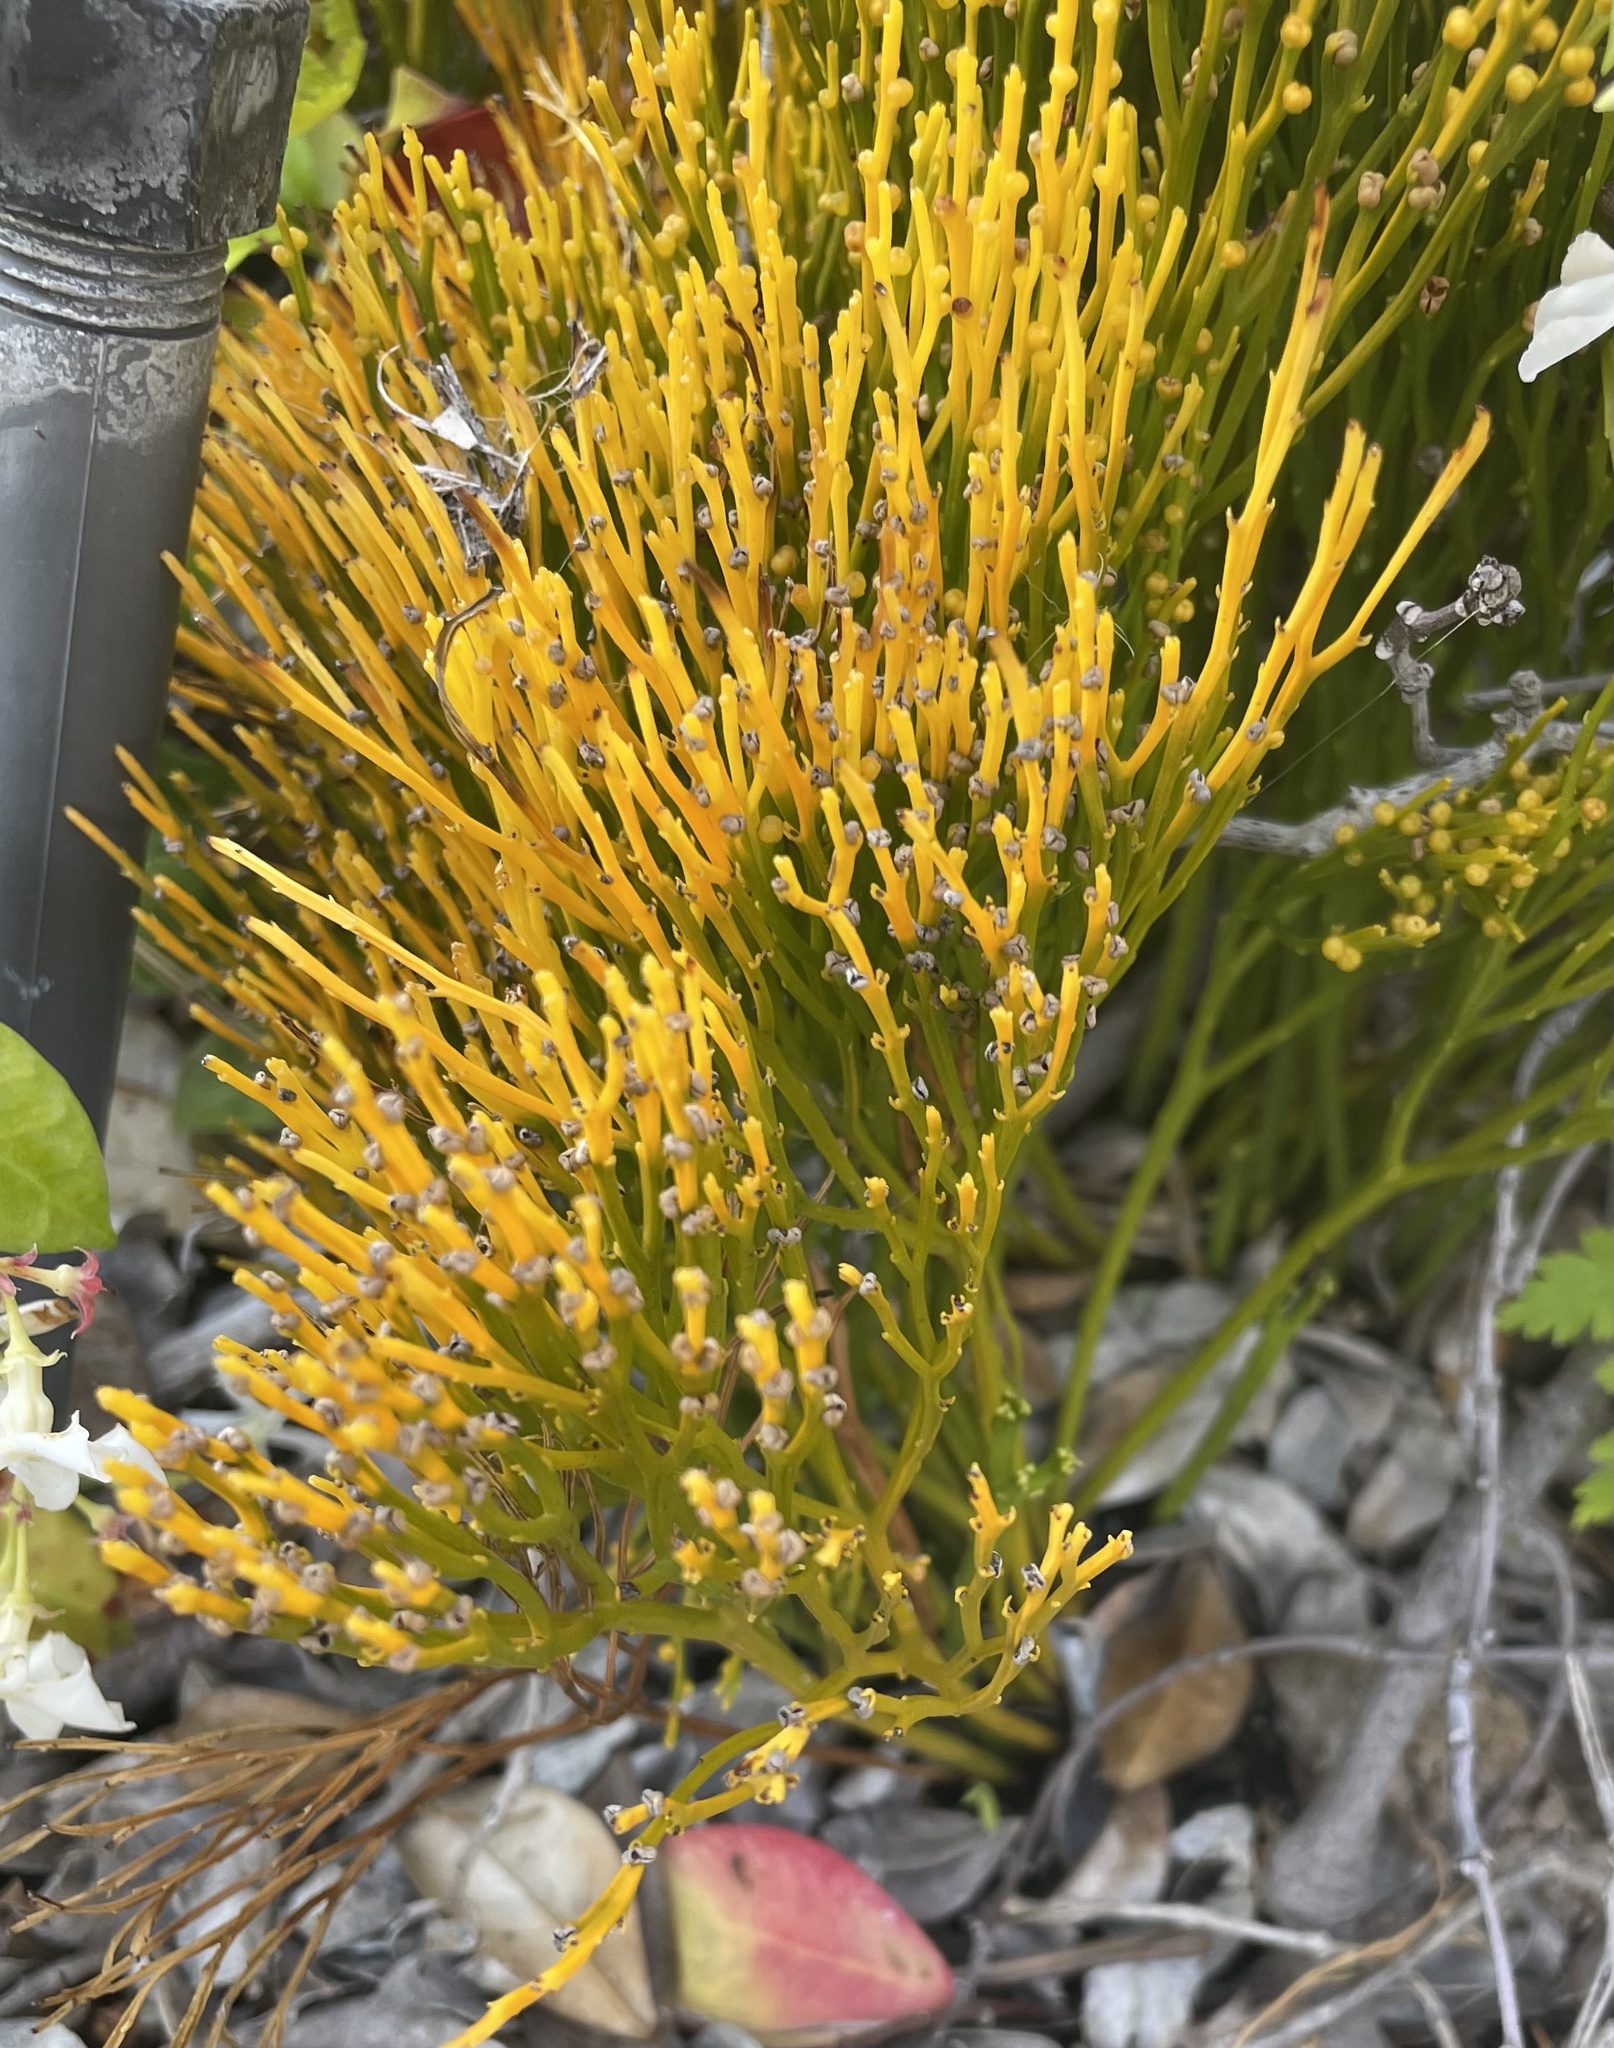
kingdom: Plantae
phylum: Tracheophyta
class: Polypodiopsida
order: Psilotales
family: Psilotaceae
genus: Psilotum
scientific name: Psilotum nudum
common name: Skeleton fork fern
